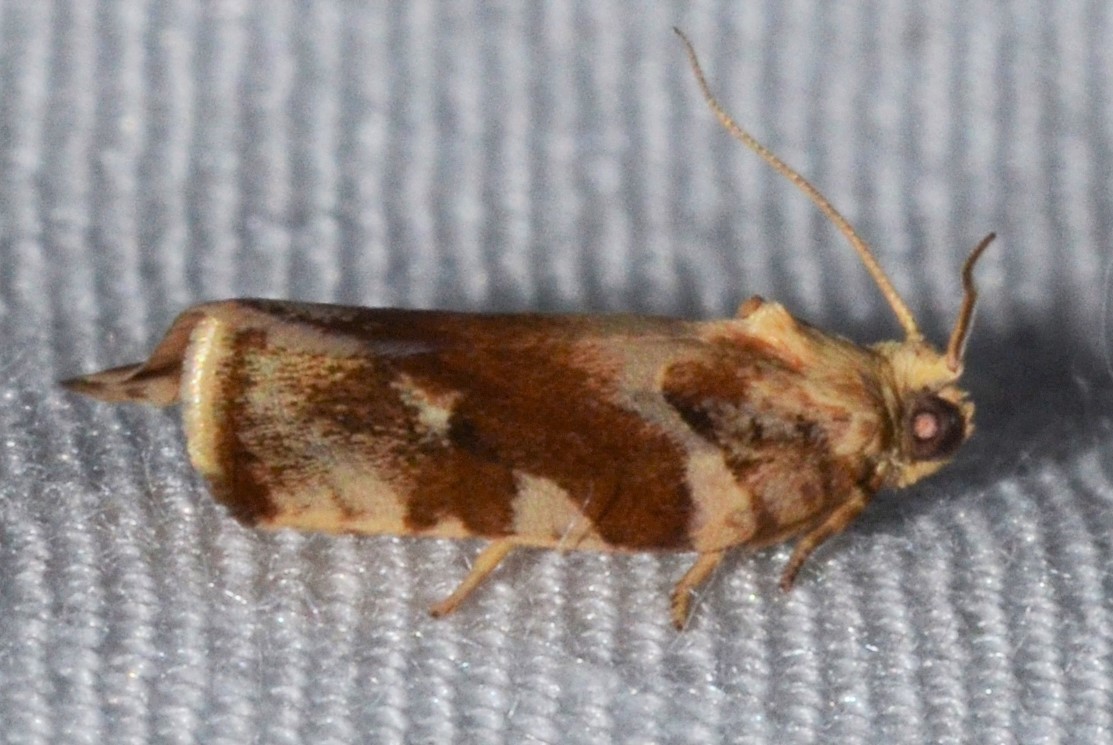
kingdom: Animalia
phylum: Arthropoda
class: Insecta
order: Lepidoptera
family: Tortricidae
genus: Archips
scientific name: Archips semiferanus
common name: Oak leafroller
